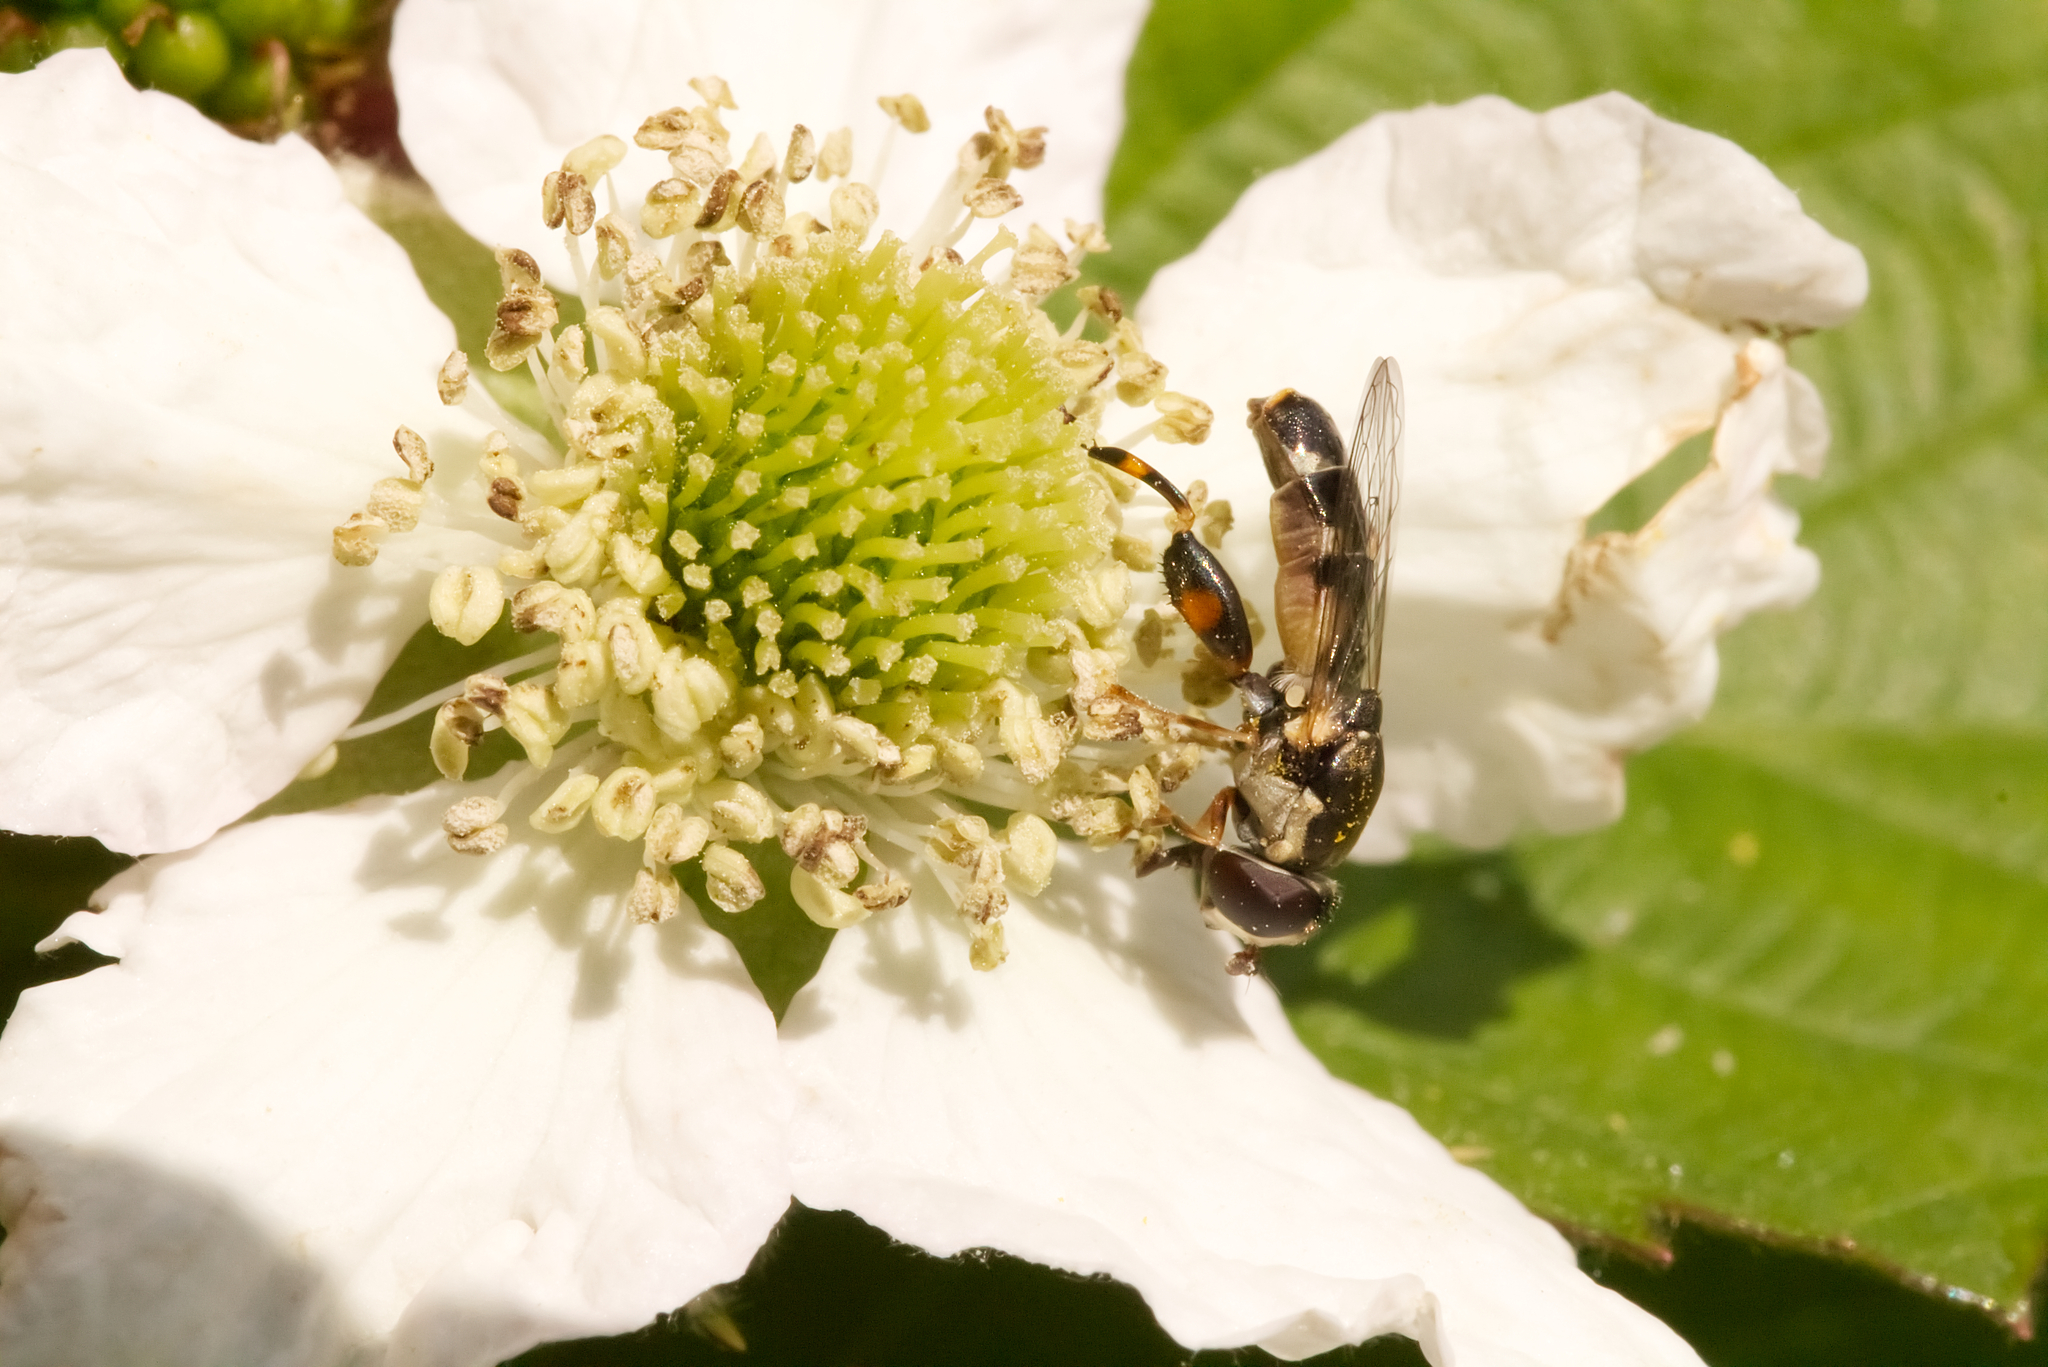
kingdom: Animalia
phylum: Arthropoda
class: Insecta
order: Diptera
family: Syrphidae
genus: Syritta
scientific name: Syritta pipiens
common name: Hover fly
